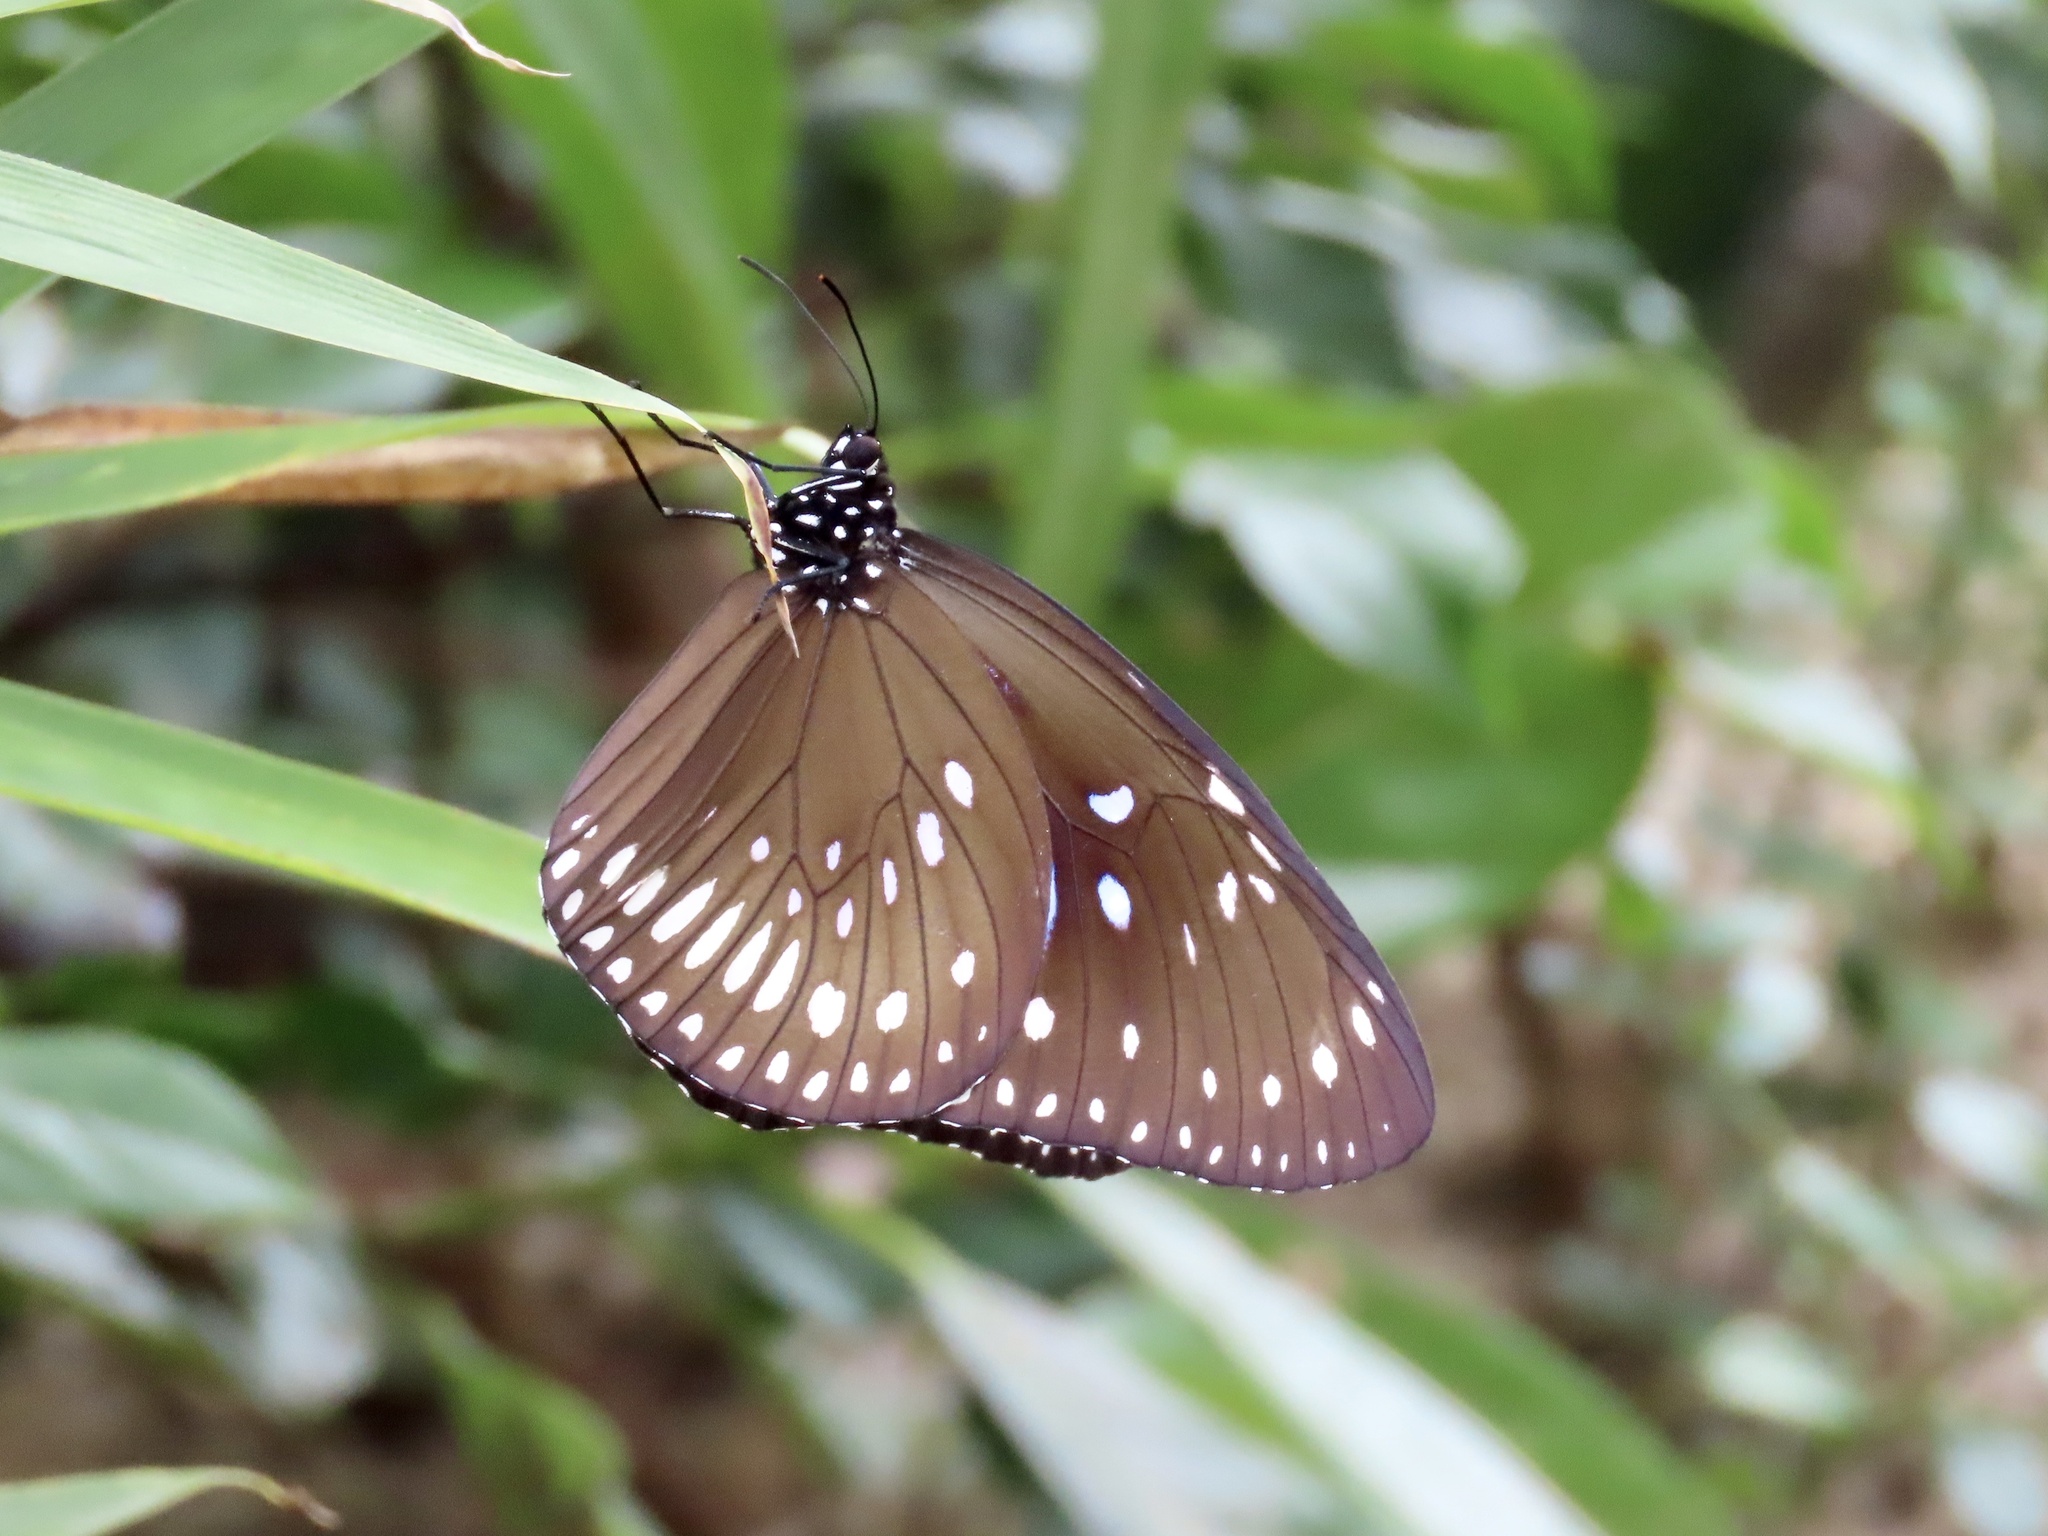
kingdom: Animalia
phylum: Arthropoda
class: Insecta
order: Lepidoptera
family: Nymphalidae
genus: Euploea
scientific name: Euploea midamus
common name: Blue-spotted crow butterfly
